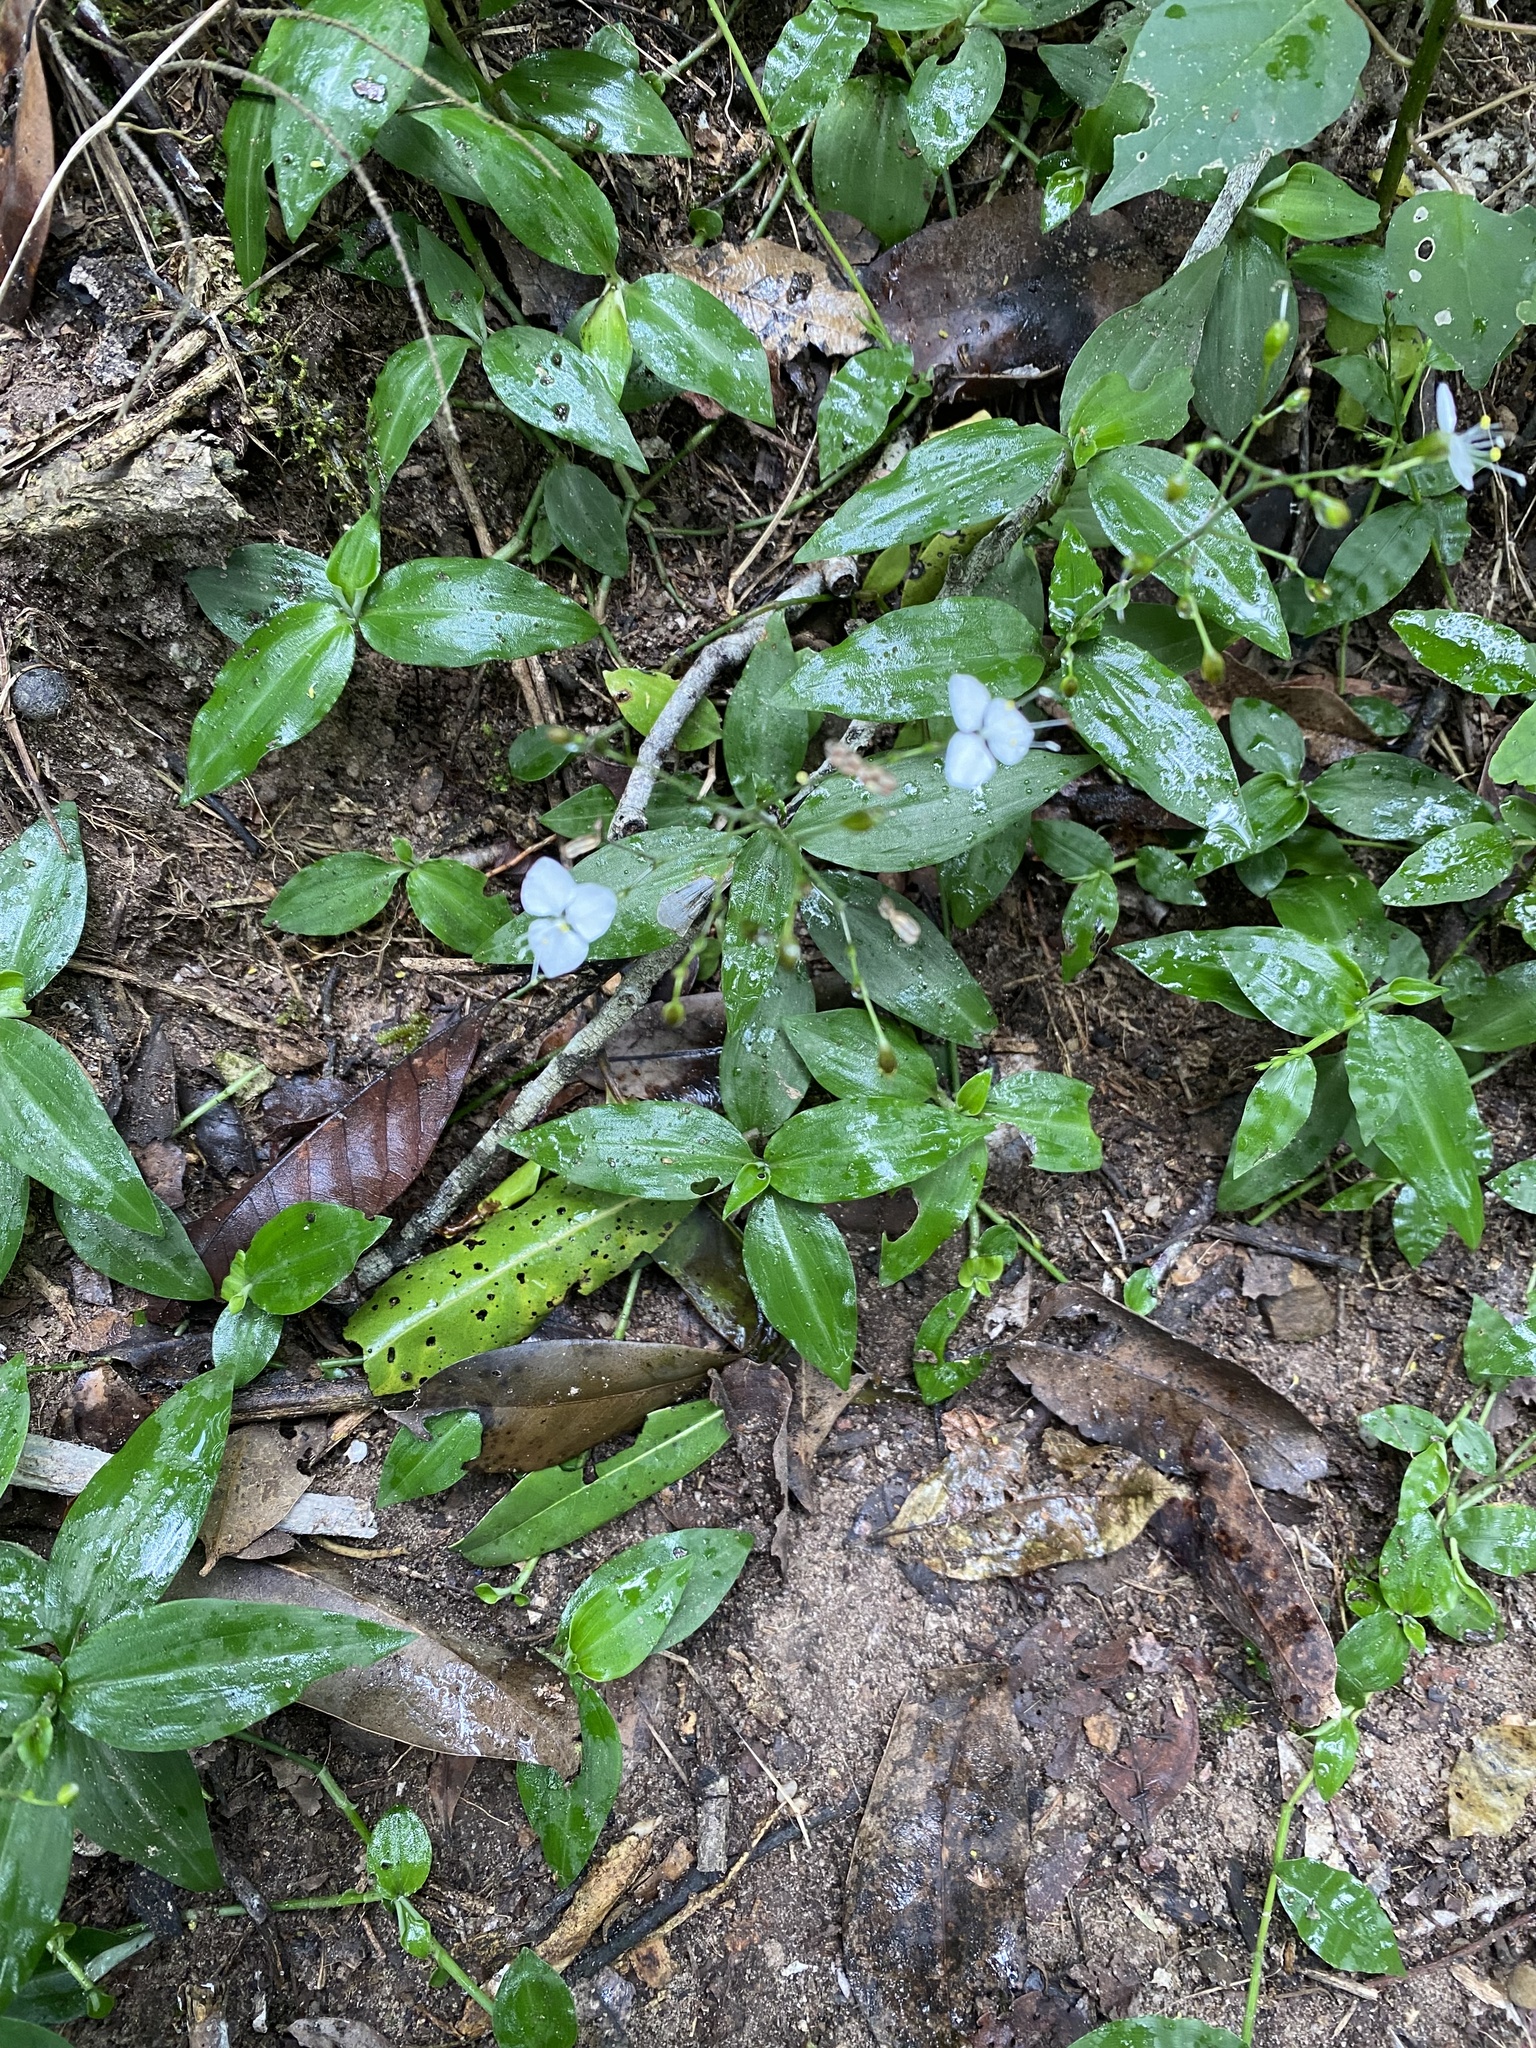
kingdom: Plantae
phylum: Tracheophyta
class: Liliopsida
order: Commelinales
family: Commelinaceae
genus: Aneilema
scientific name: Aneilema acuminatum
